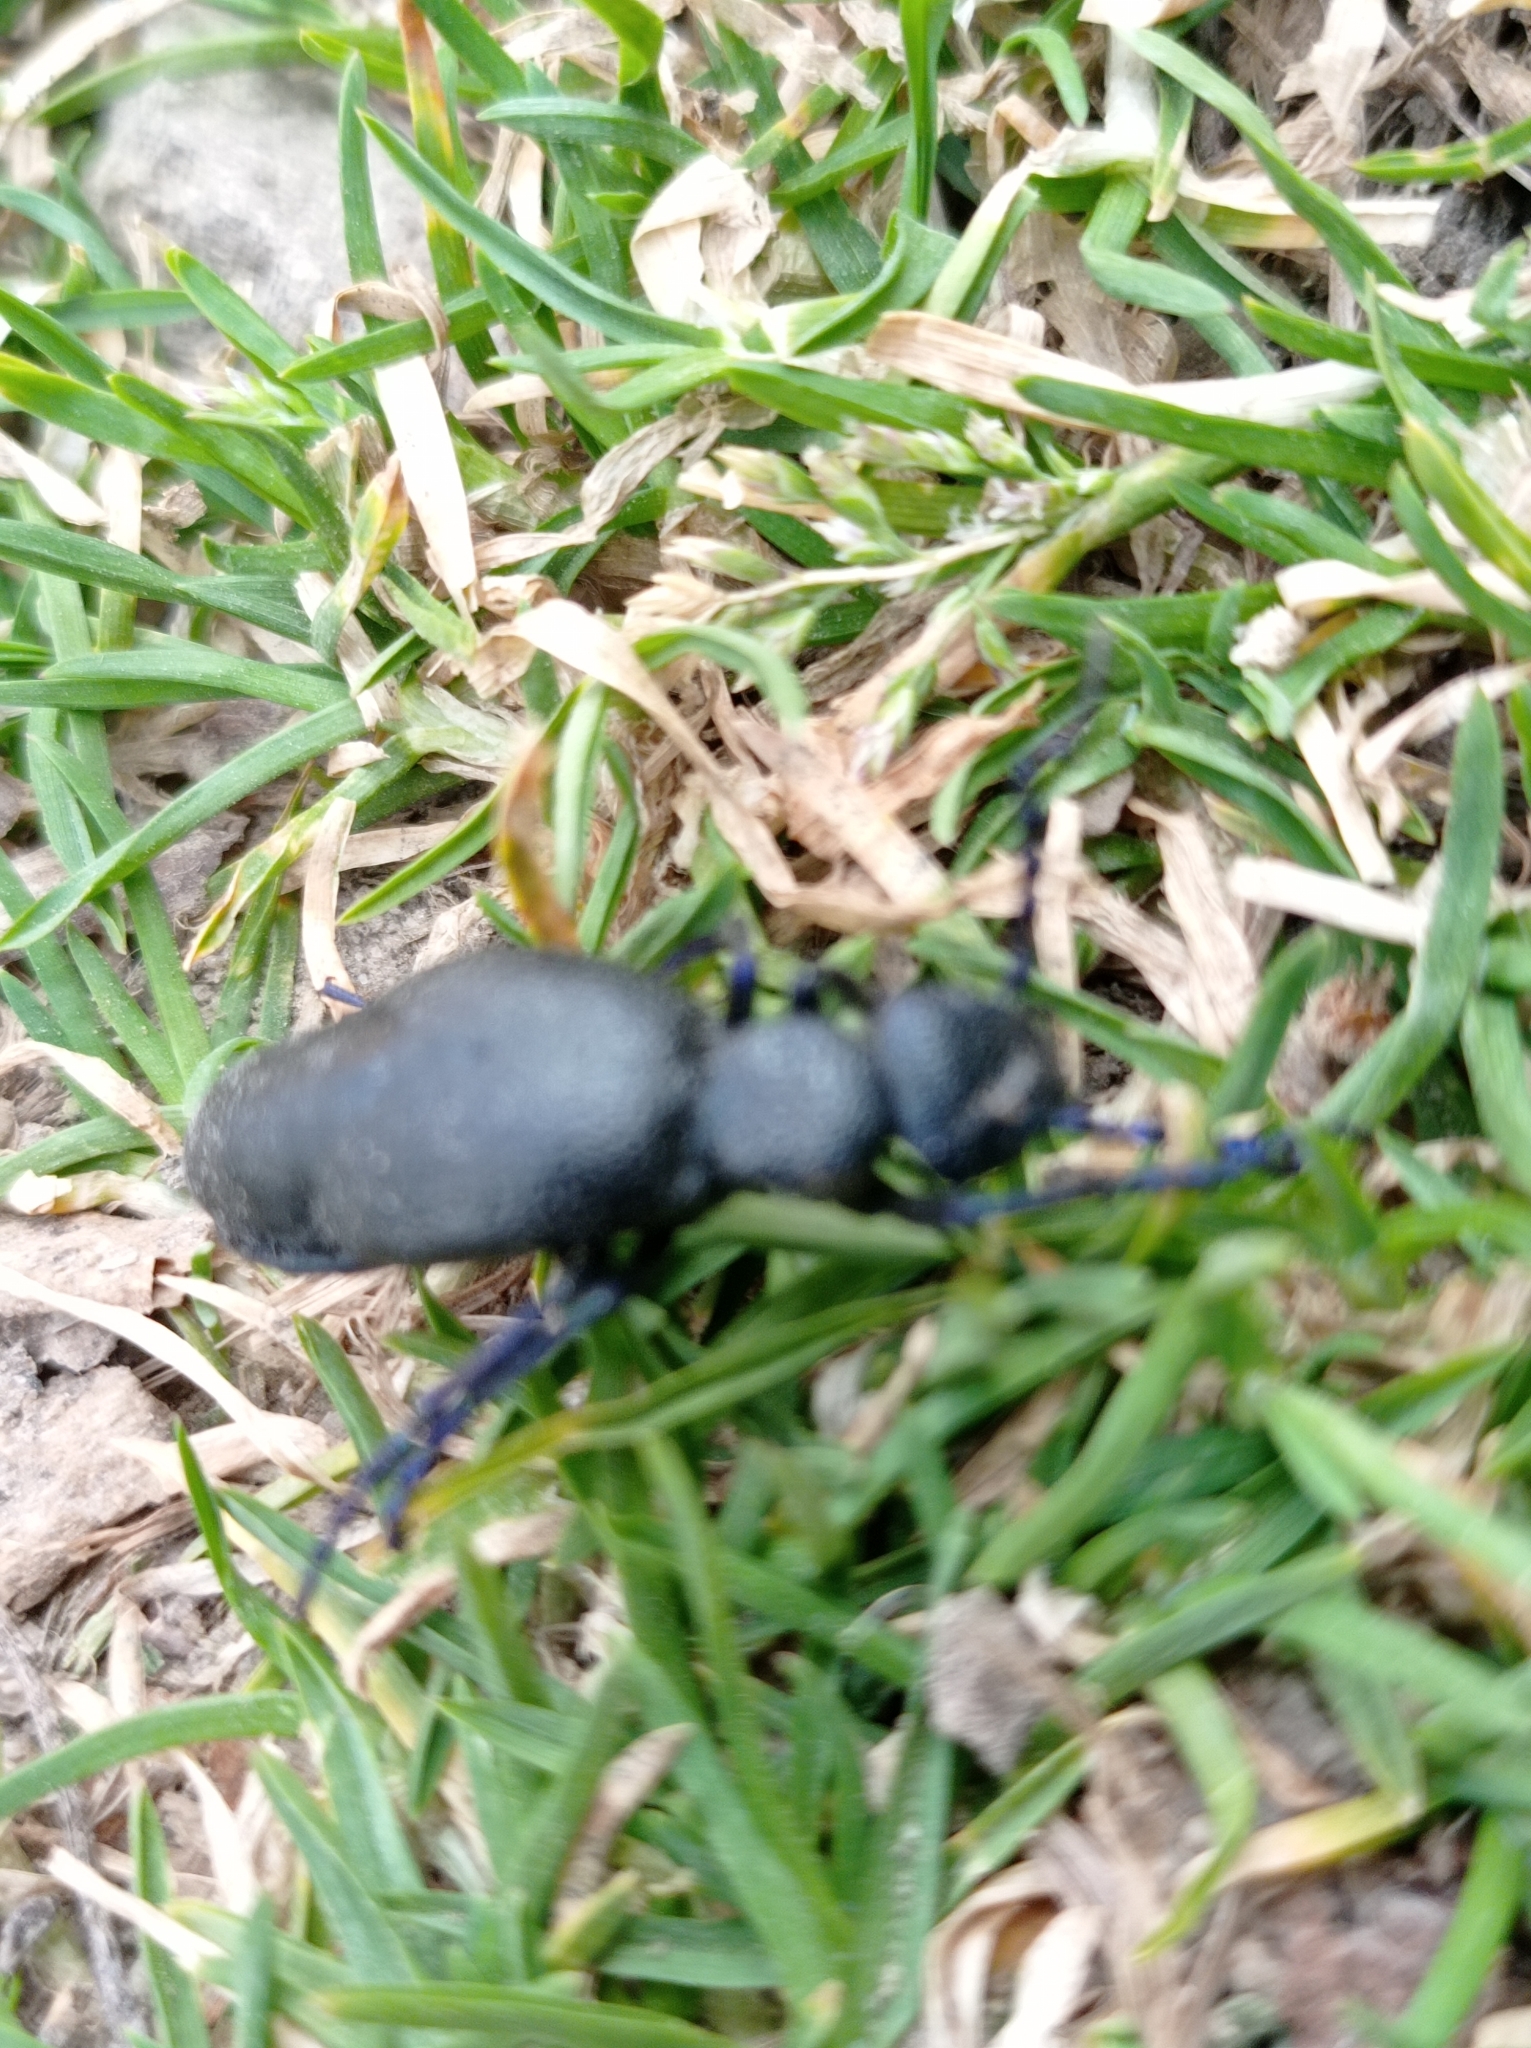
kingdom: Animalia
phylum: Arthropoda
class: Insecta
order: Coleoptera
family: Meloidae
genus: Meloe
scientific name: Meloe proscarabaeus
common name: Black oil-beetle
